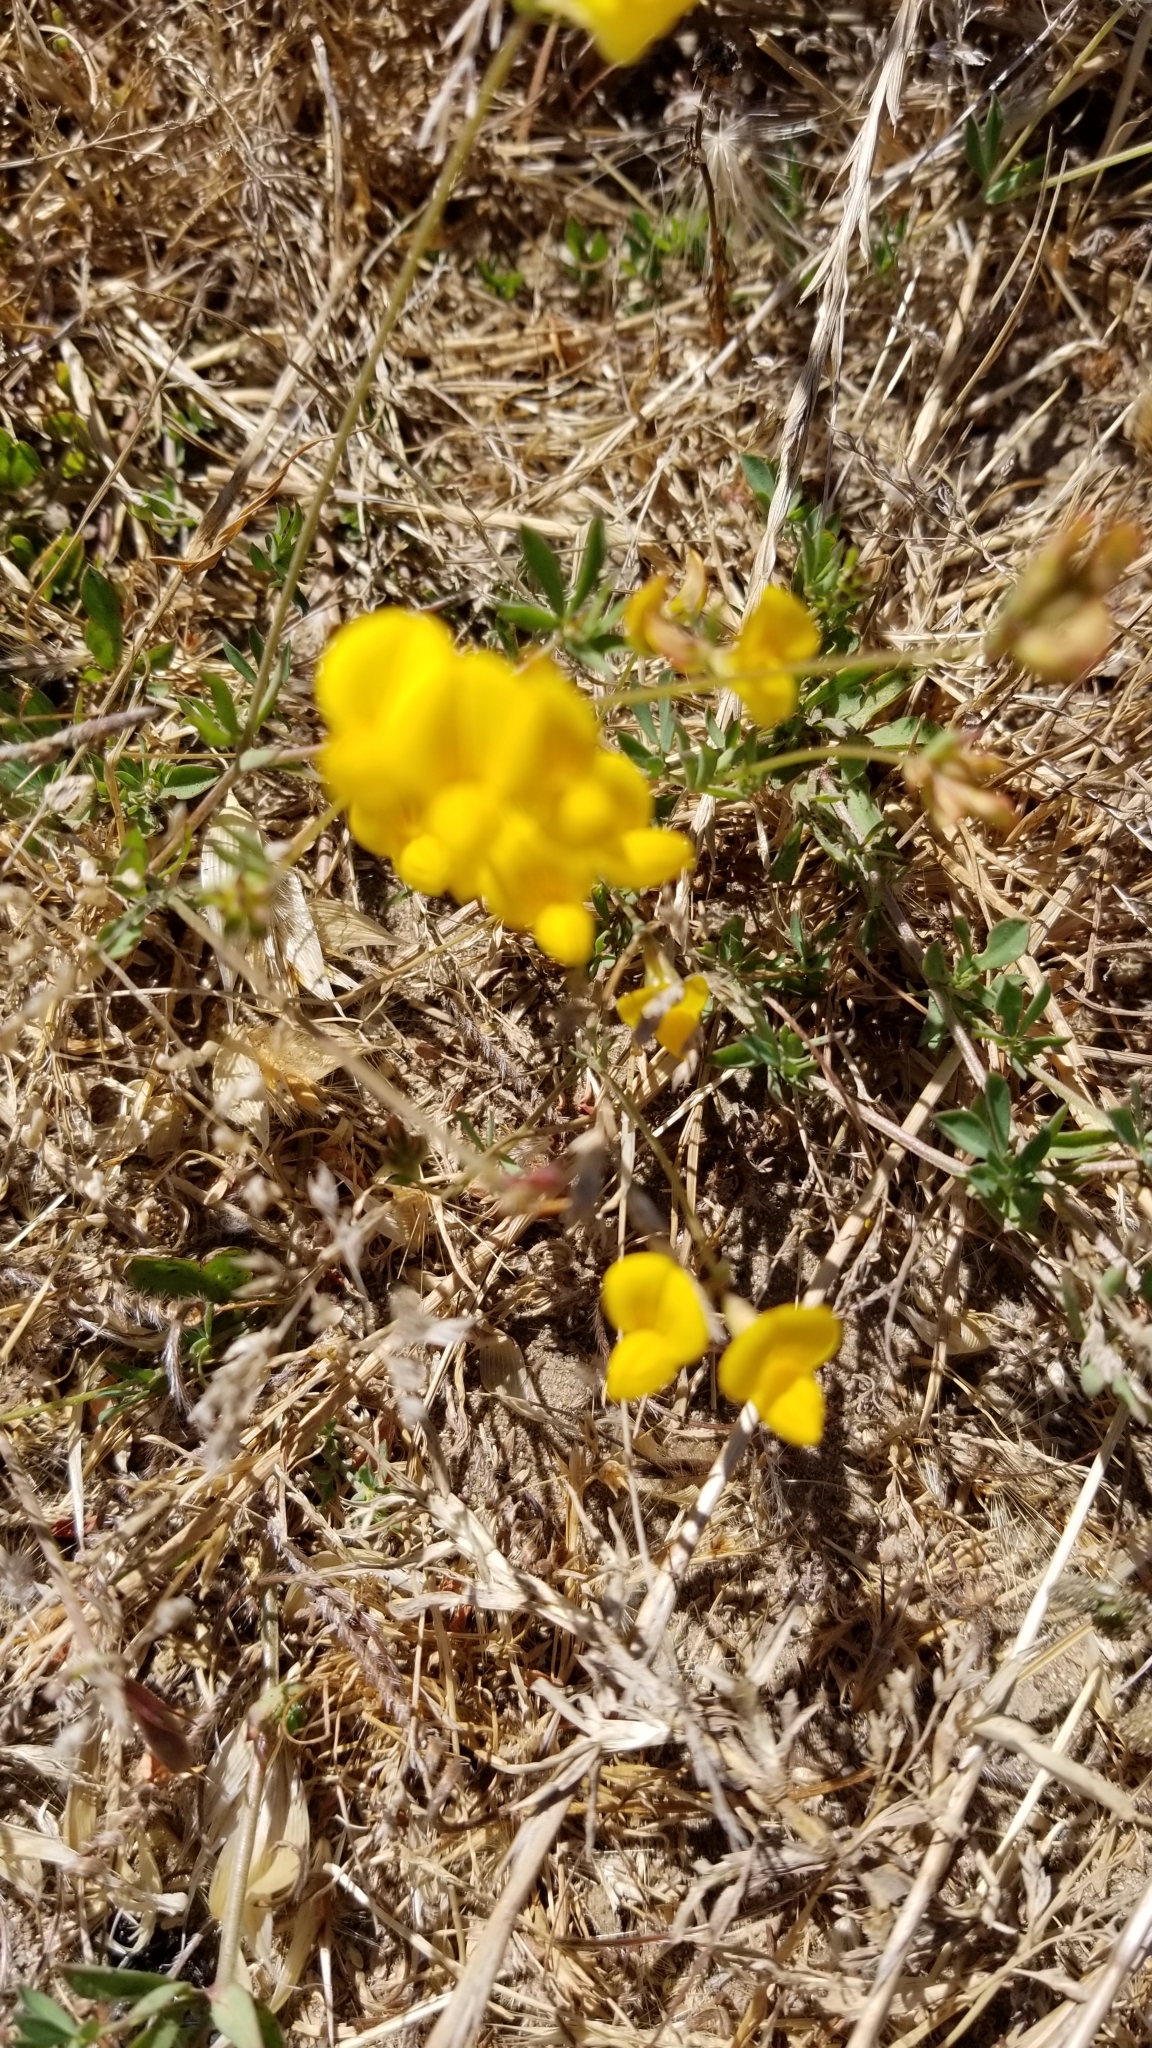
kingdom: Plantae
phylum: Tracheophyta
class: Magnoliopsida
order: Fabales
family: Fabaceae
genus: Lotus
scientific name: Lotus corniculatus
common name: Common bird's-foot-trefoil
